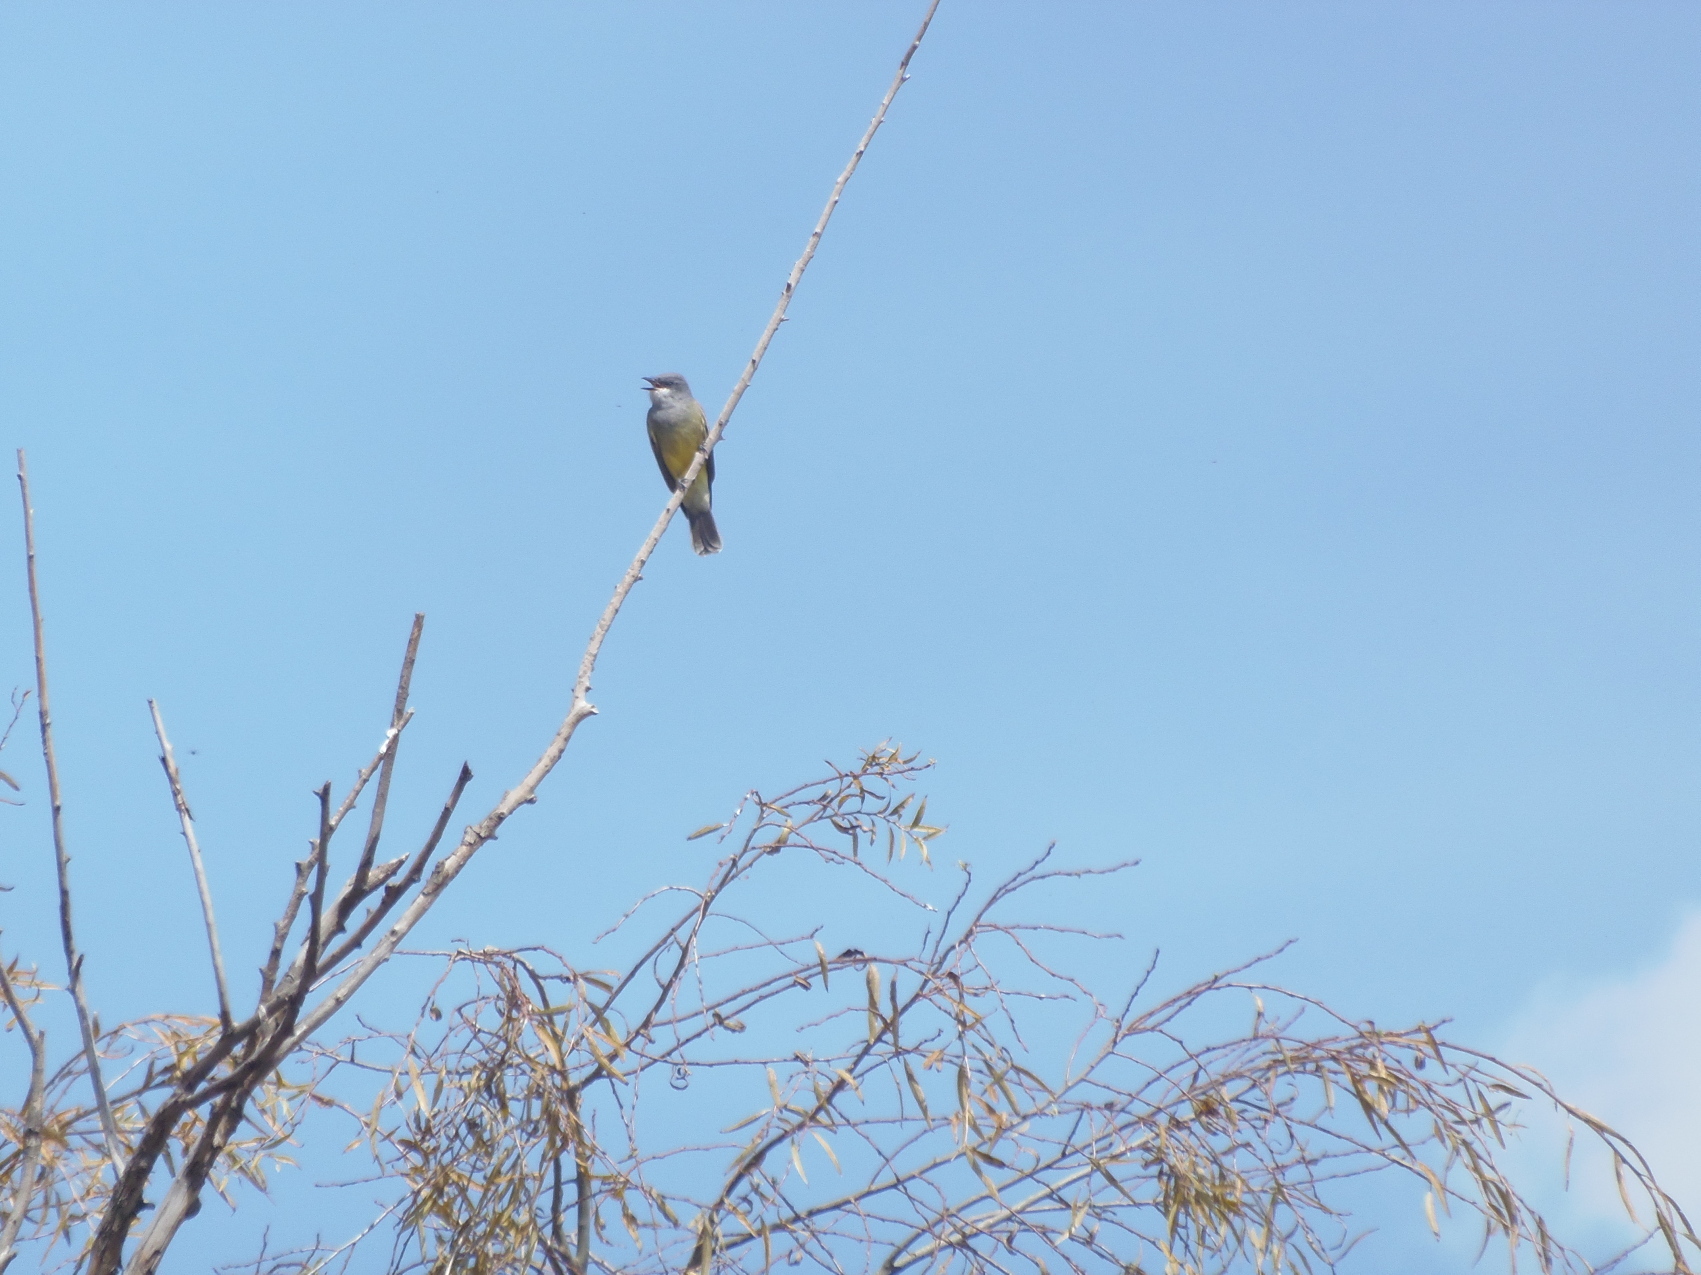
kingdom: Animalia
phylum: Chordata
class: Aves
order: Passeriformes
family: Tyrannidae
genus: Tyrannus
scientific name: Tyrannus vociferans
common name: Cassin's kingbird
